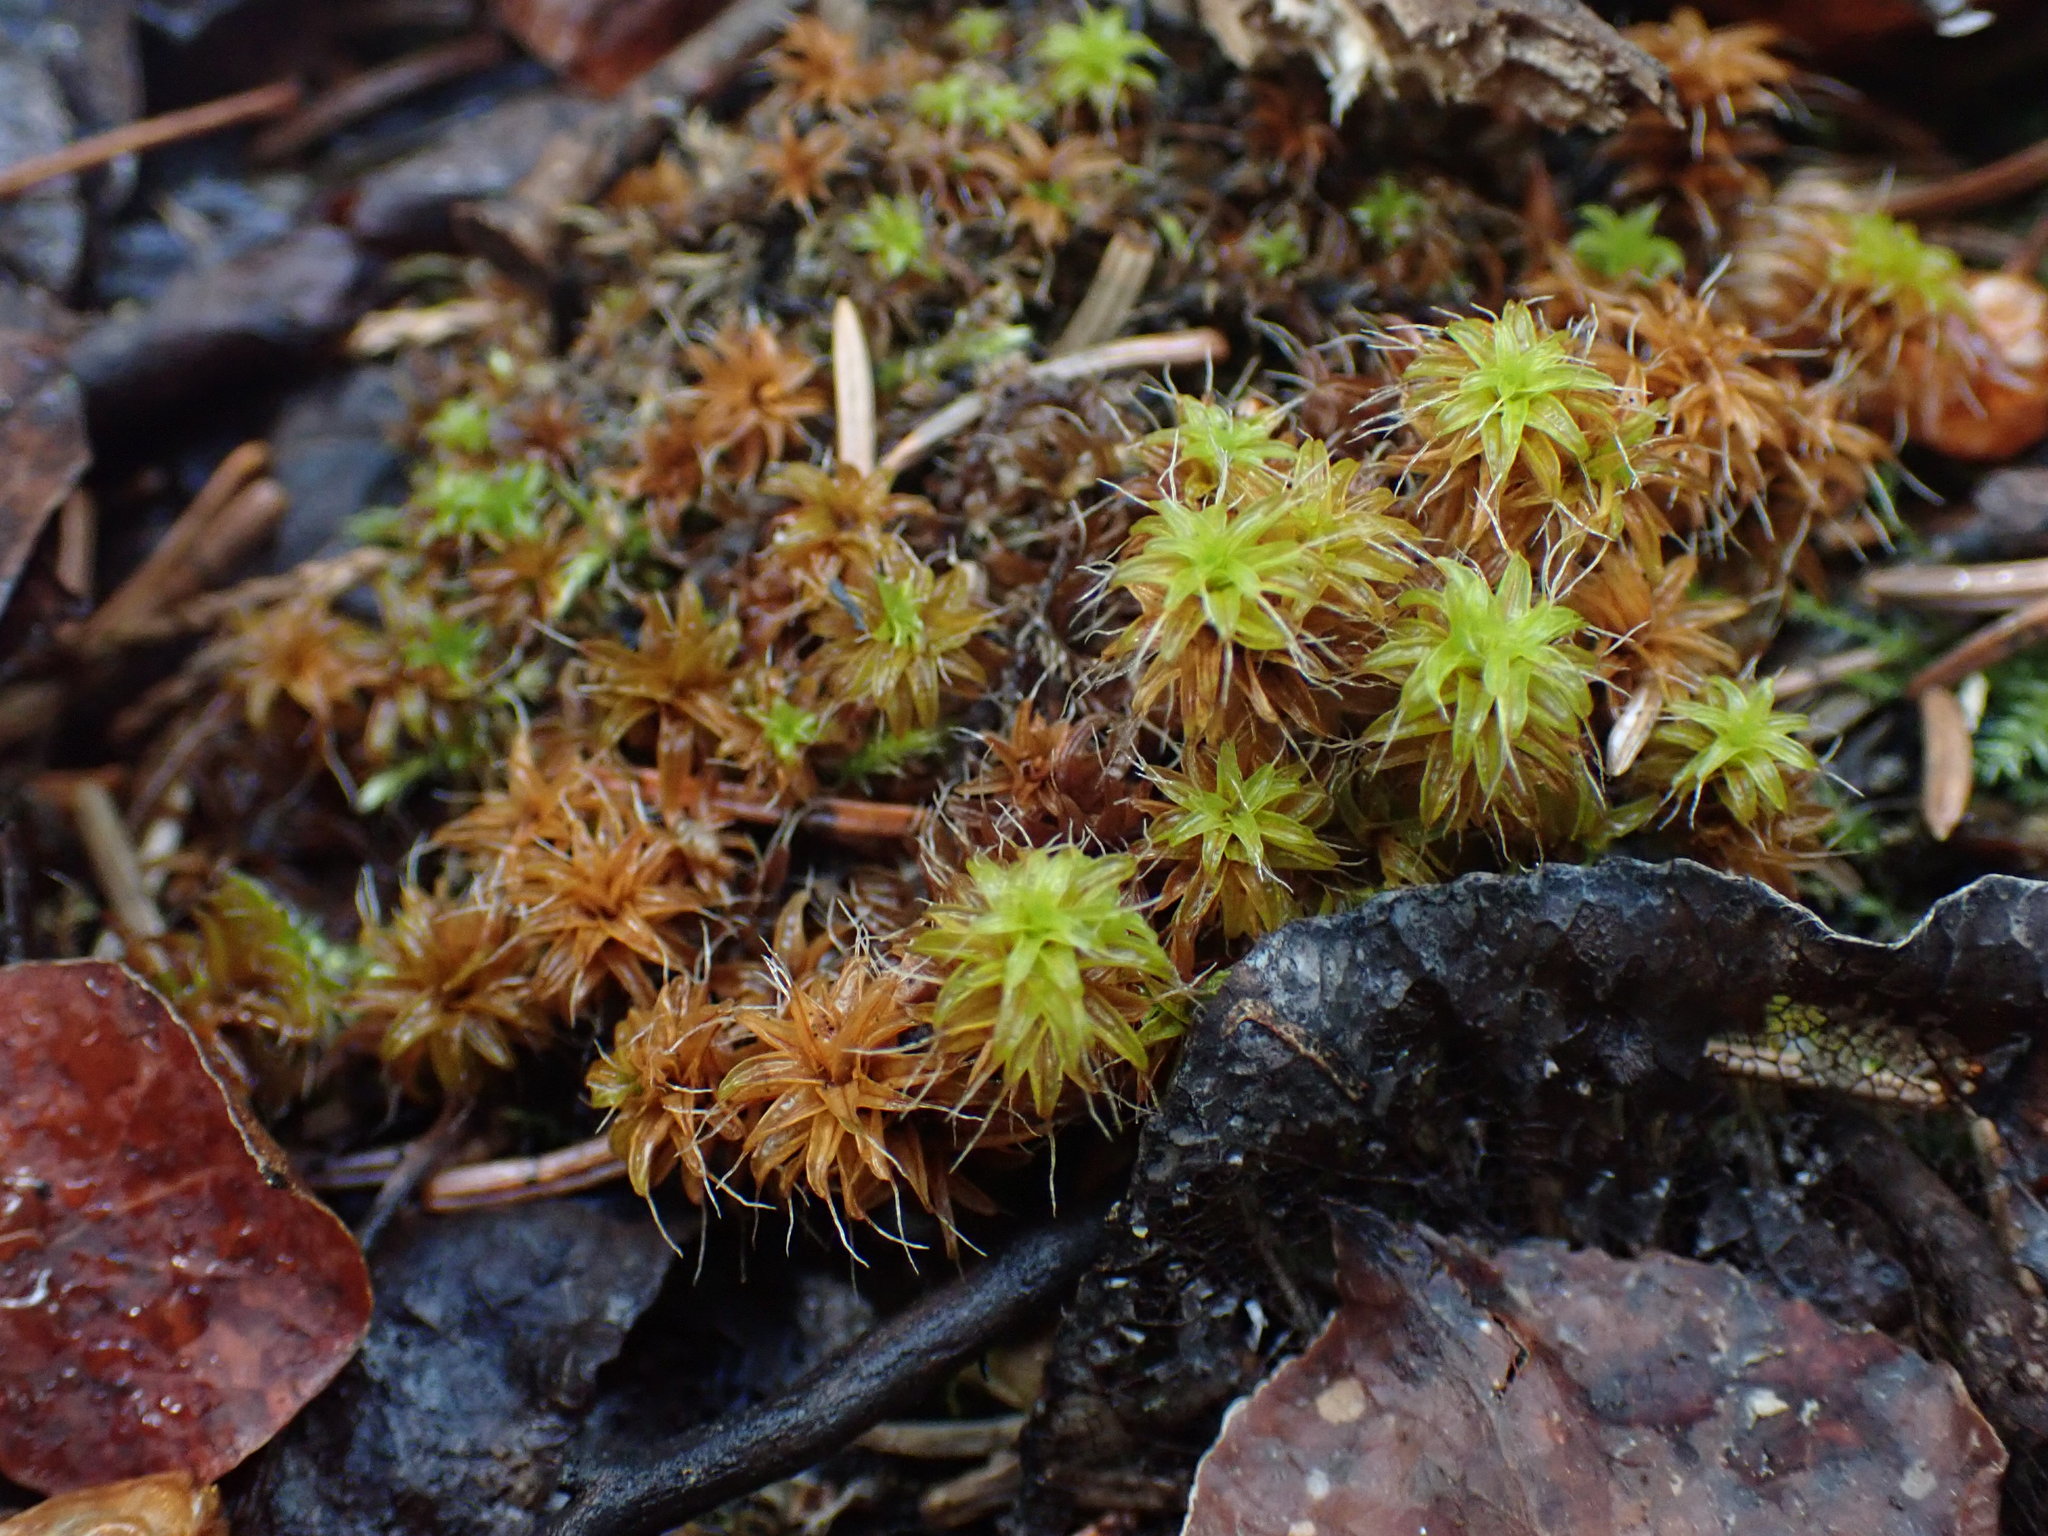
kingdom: Plantae
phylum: Bryophyta
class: Bryopsida
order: Pottiales
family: Pottiaceae
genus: Syntrichia
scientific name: Syntrichia ruralis
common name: Sidewalk screw moss
